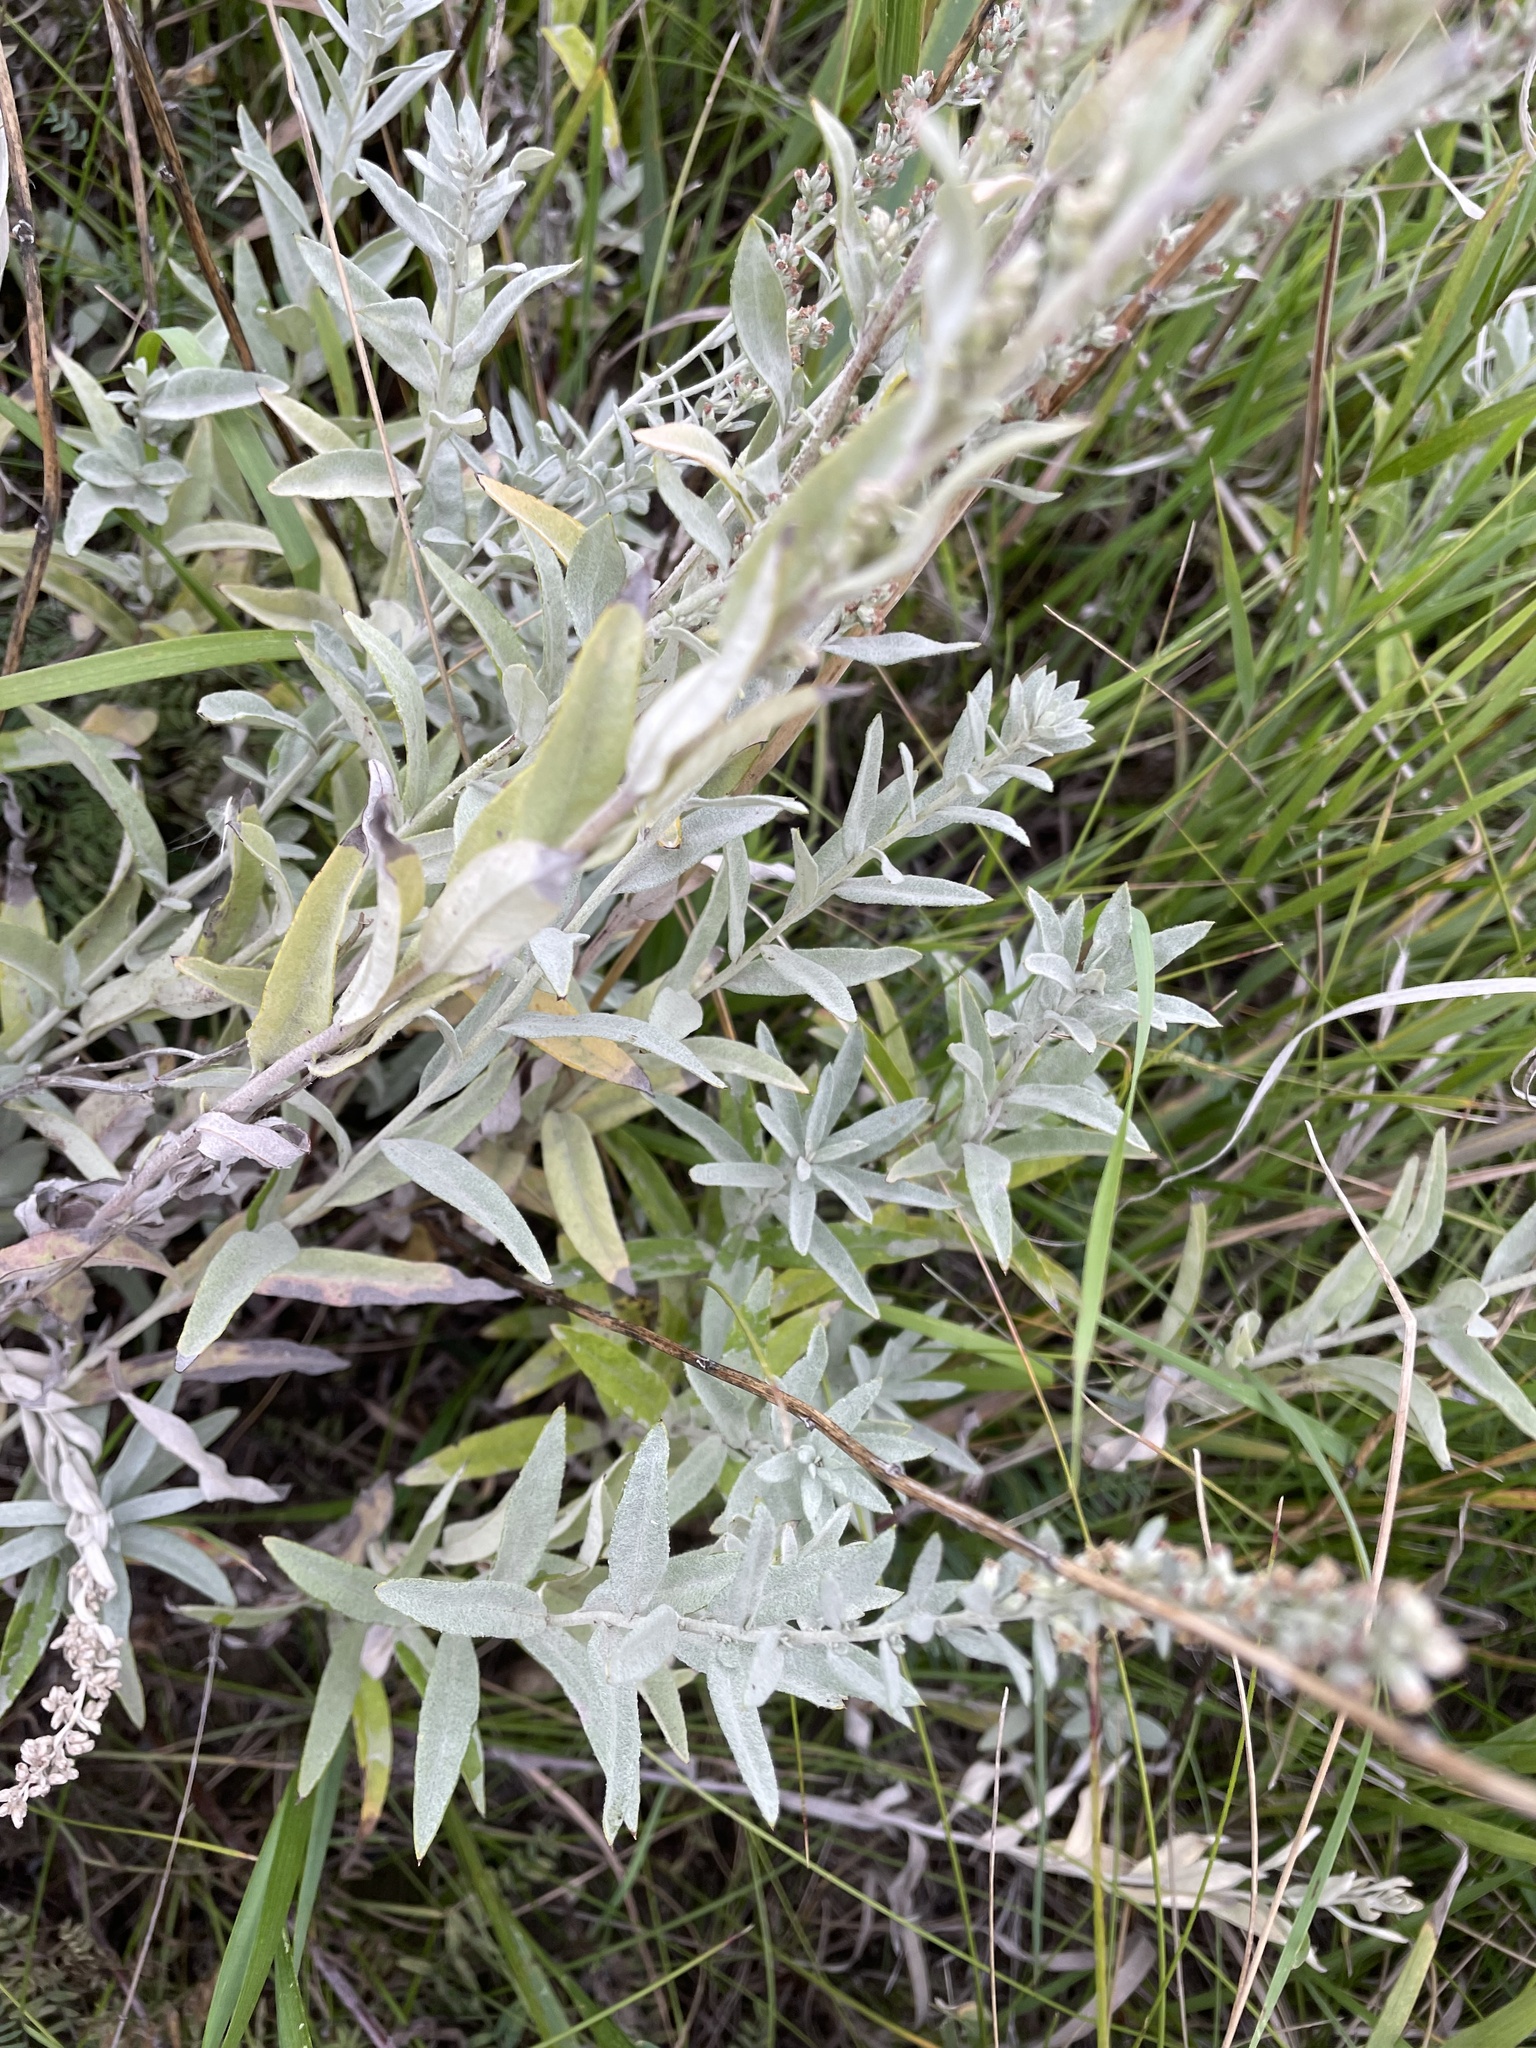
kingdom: Plantae
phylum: Tracheophyta
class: Magnoliopsida
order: Asterales
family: Asteraceae
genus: Artemisia
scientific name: Artemisia ludoviciana
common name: Western mugwort
